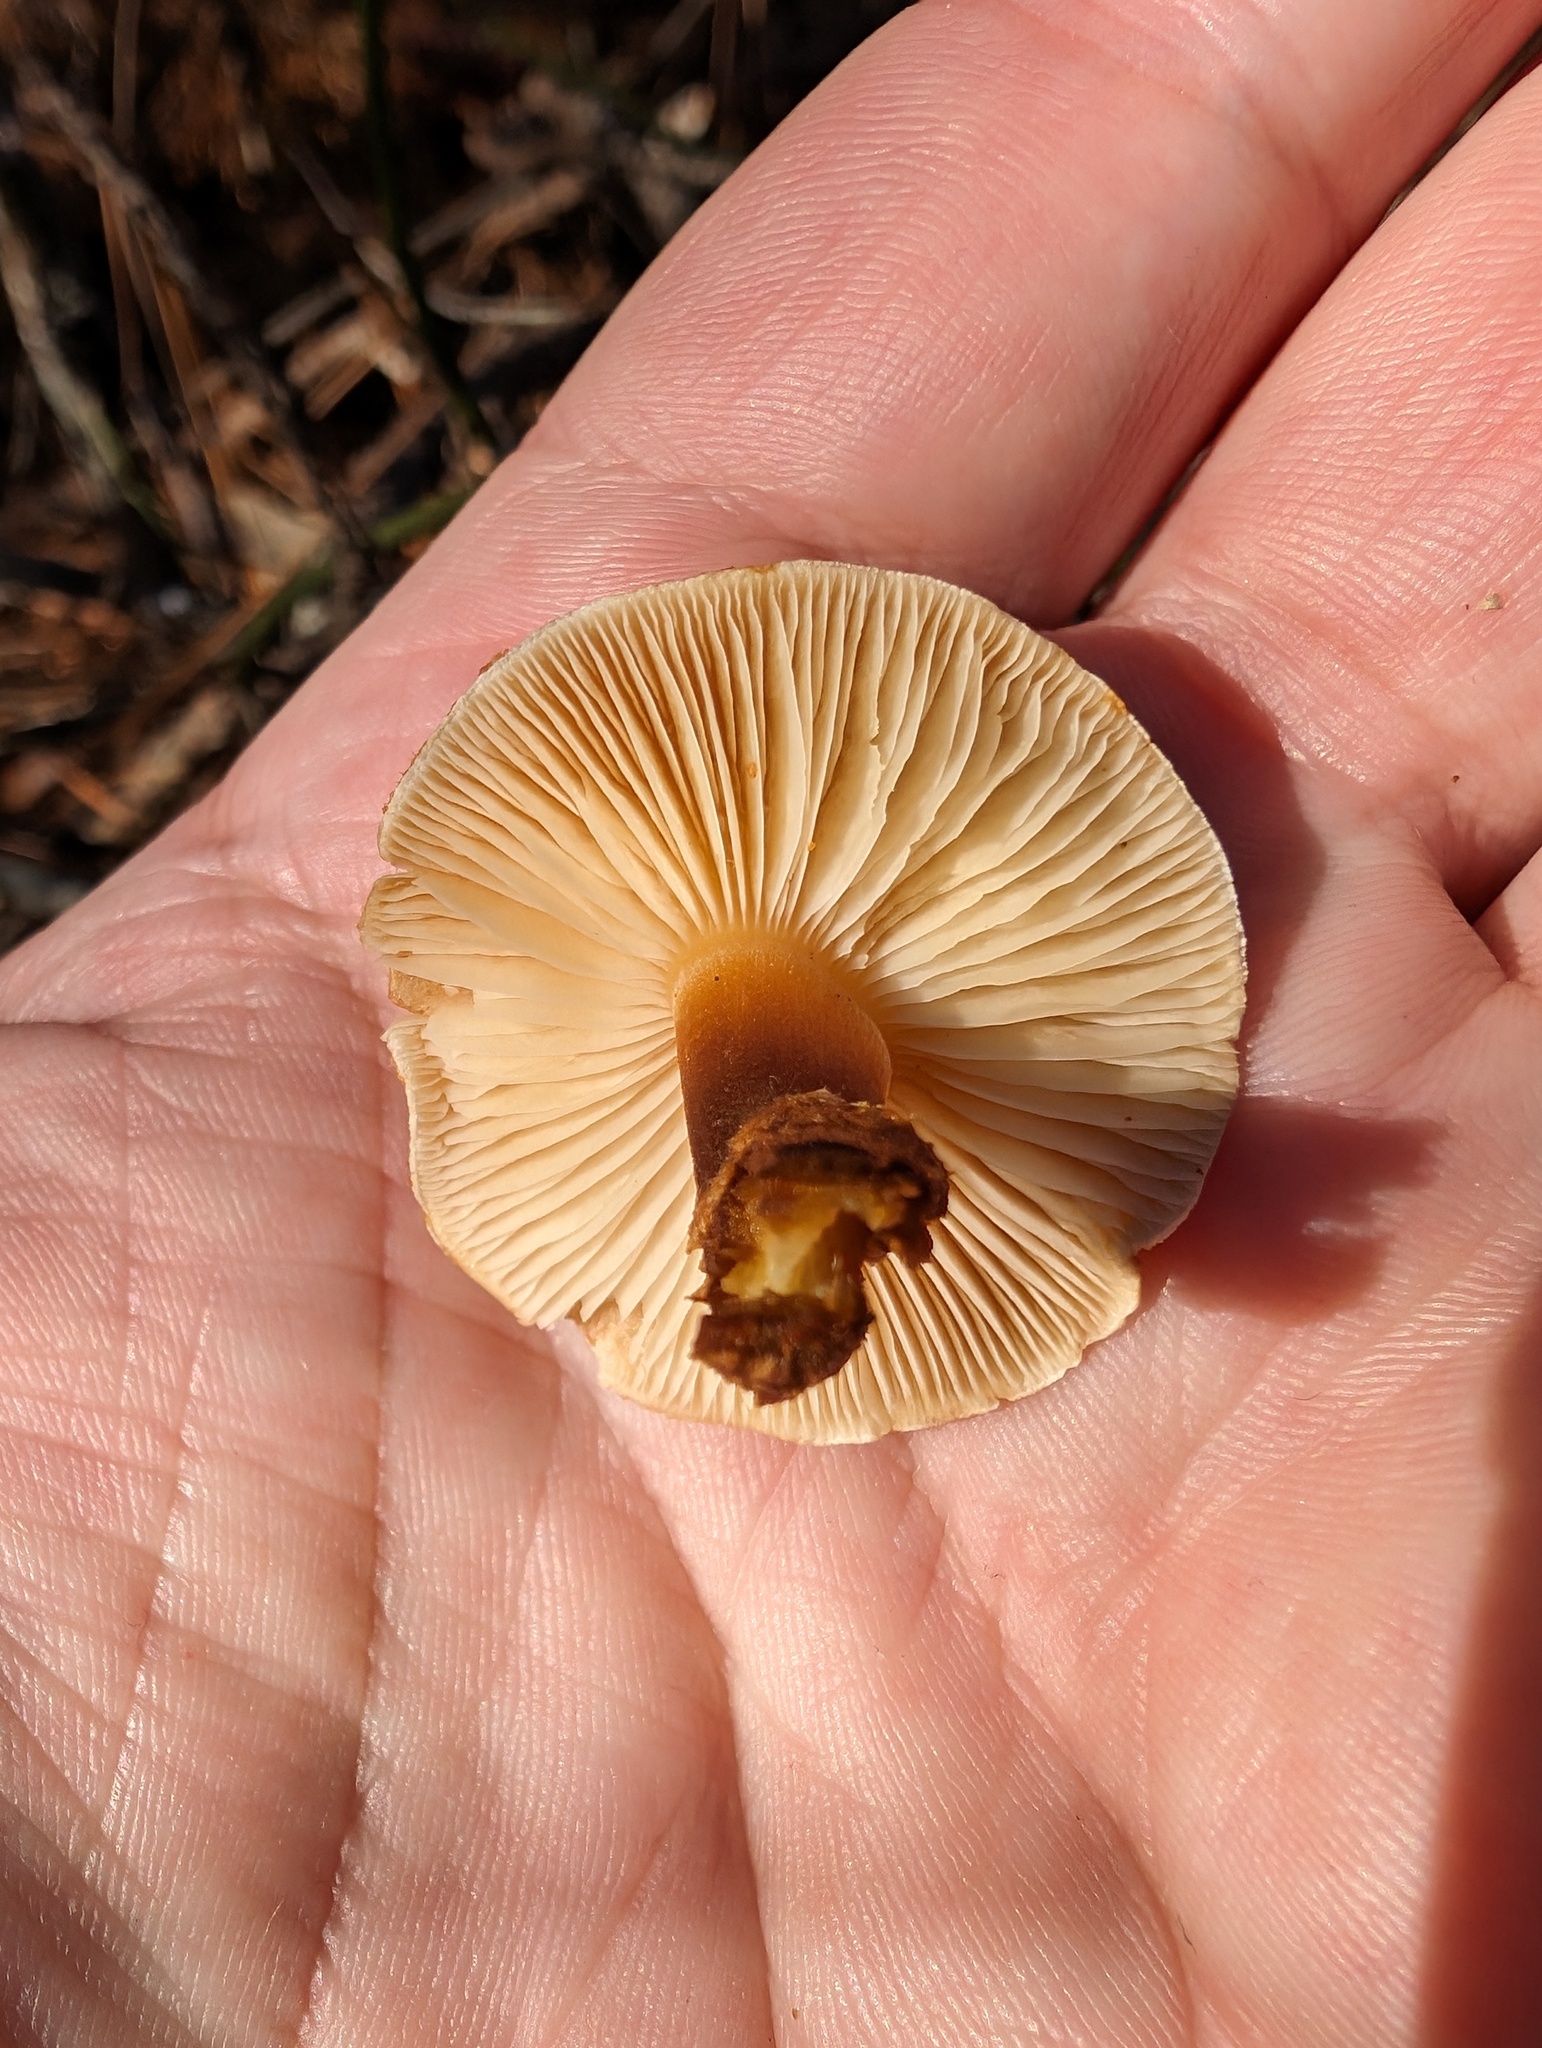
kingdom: Fungi
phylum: Basidiomycota
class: Agaricomycetes
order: Agaricales
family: Agaricaceae
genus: Cystodermella
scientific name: Cystodermella cinnabarina
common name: Cinnabar powdercap
